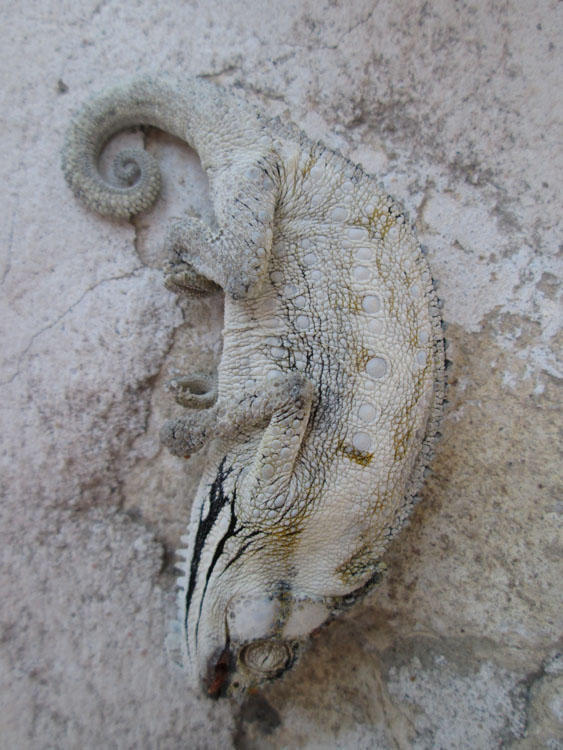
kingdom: Animalia
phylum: Chordata
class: Squamata
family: Chamaeleonidae
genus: Bradypodion
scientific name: Bradypodion occidentale
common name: Western dwarf chameleon
